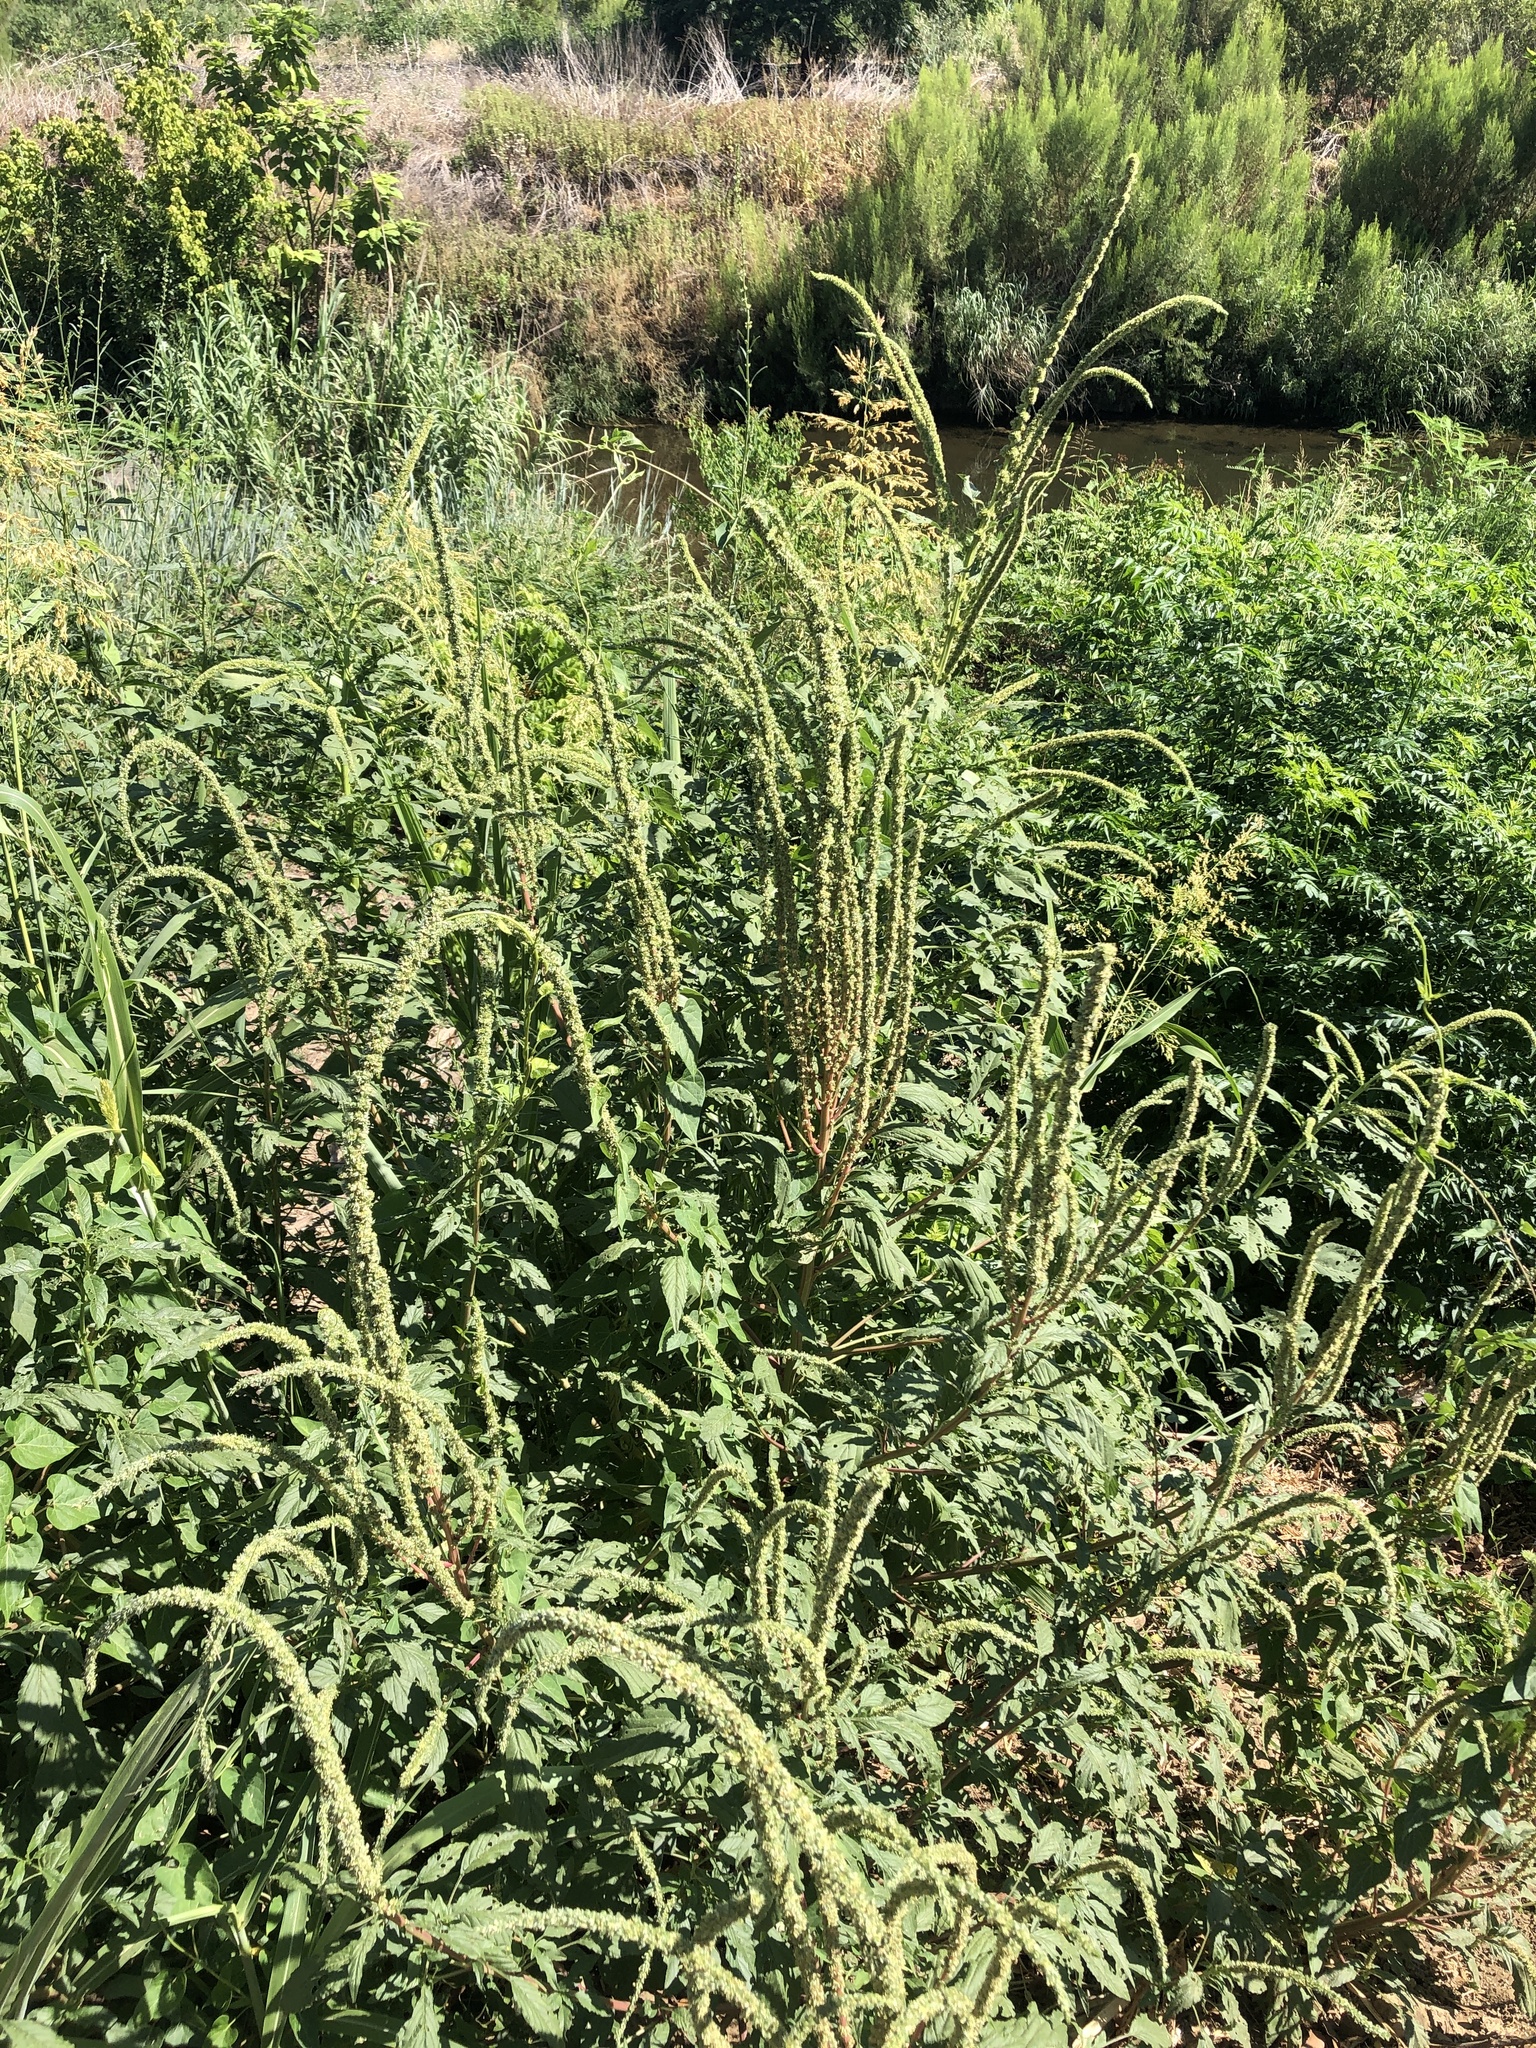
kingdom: Plantae
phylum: Tracheophyta
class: Magnoliopsida
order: Caryophyllales
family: Amaranthaceae
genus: Amaranthus
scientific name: Amaranthus palmeri
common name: Dioecious amaranth
